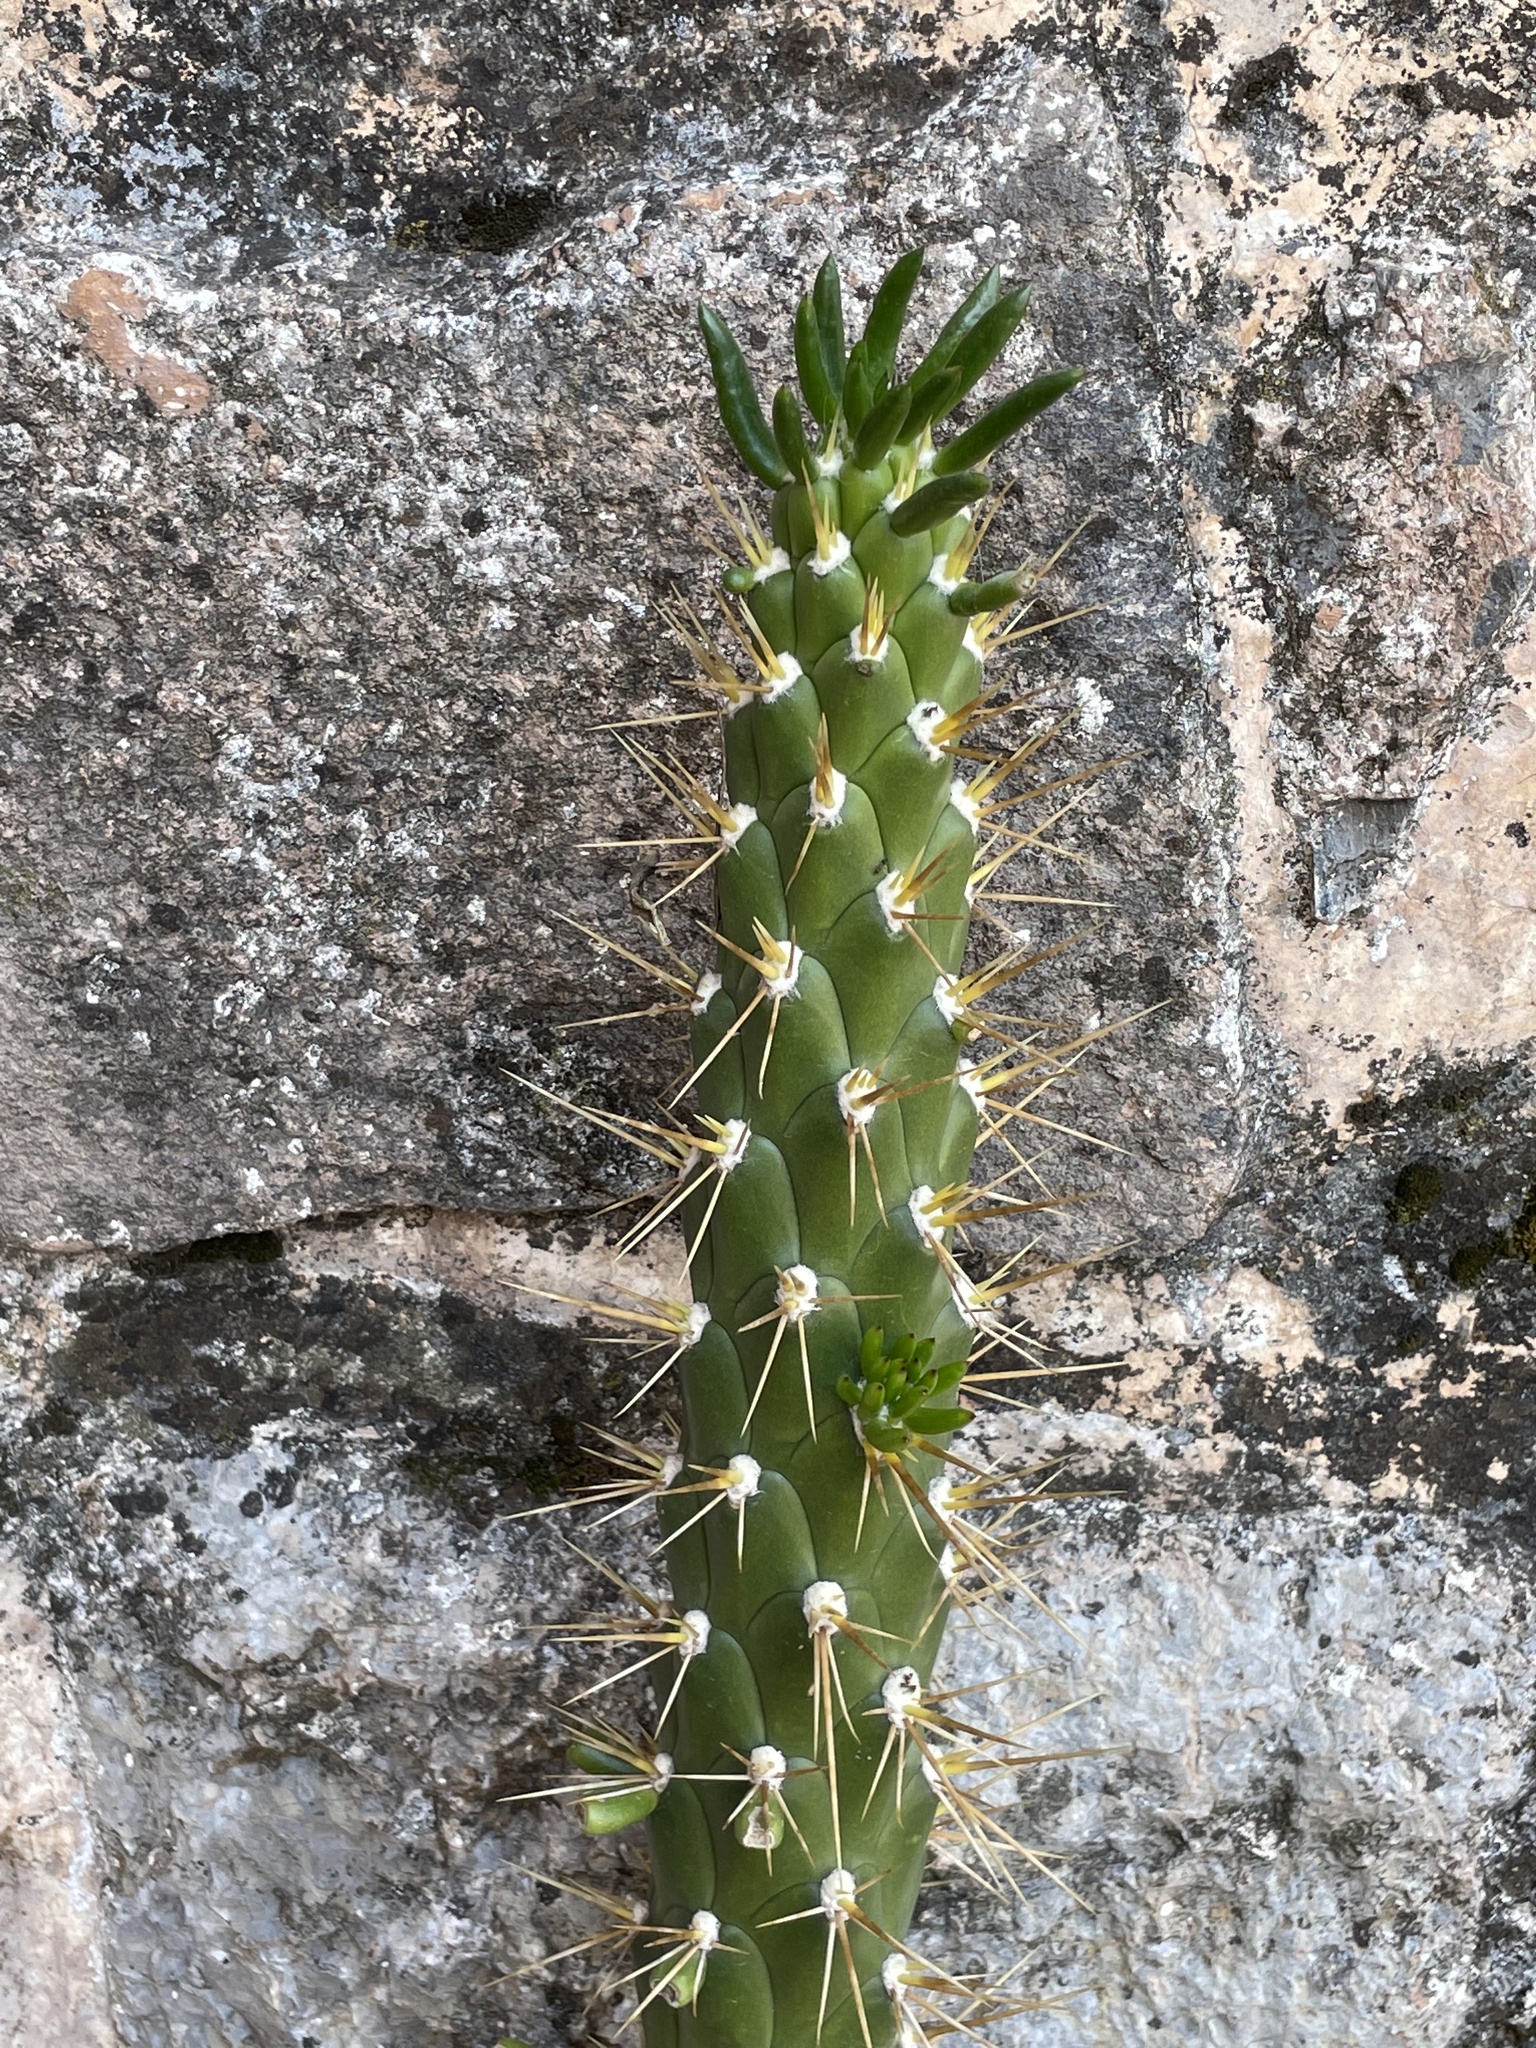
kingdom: Plantae
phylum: Tracheophyta
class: Magnoliopsida
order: Caryophyllales
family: Cactaceae
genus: Austrocylindropuntia
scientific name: Austrocylindropuntia subulata
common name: Eve's needle cactus
